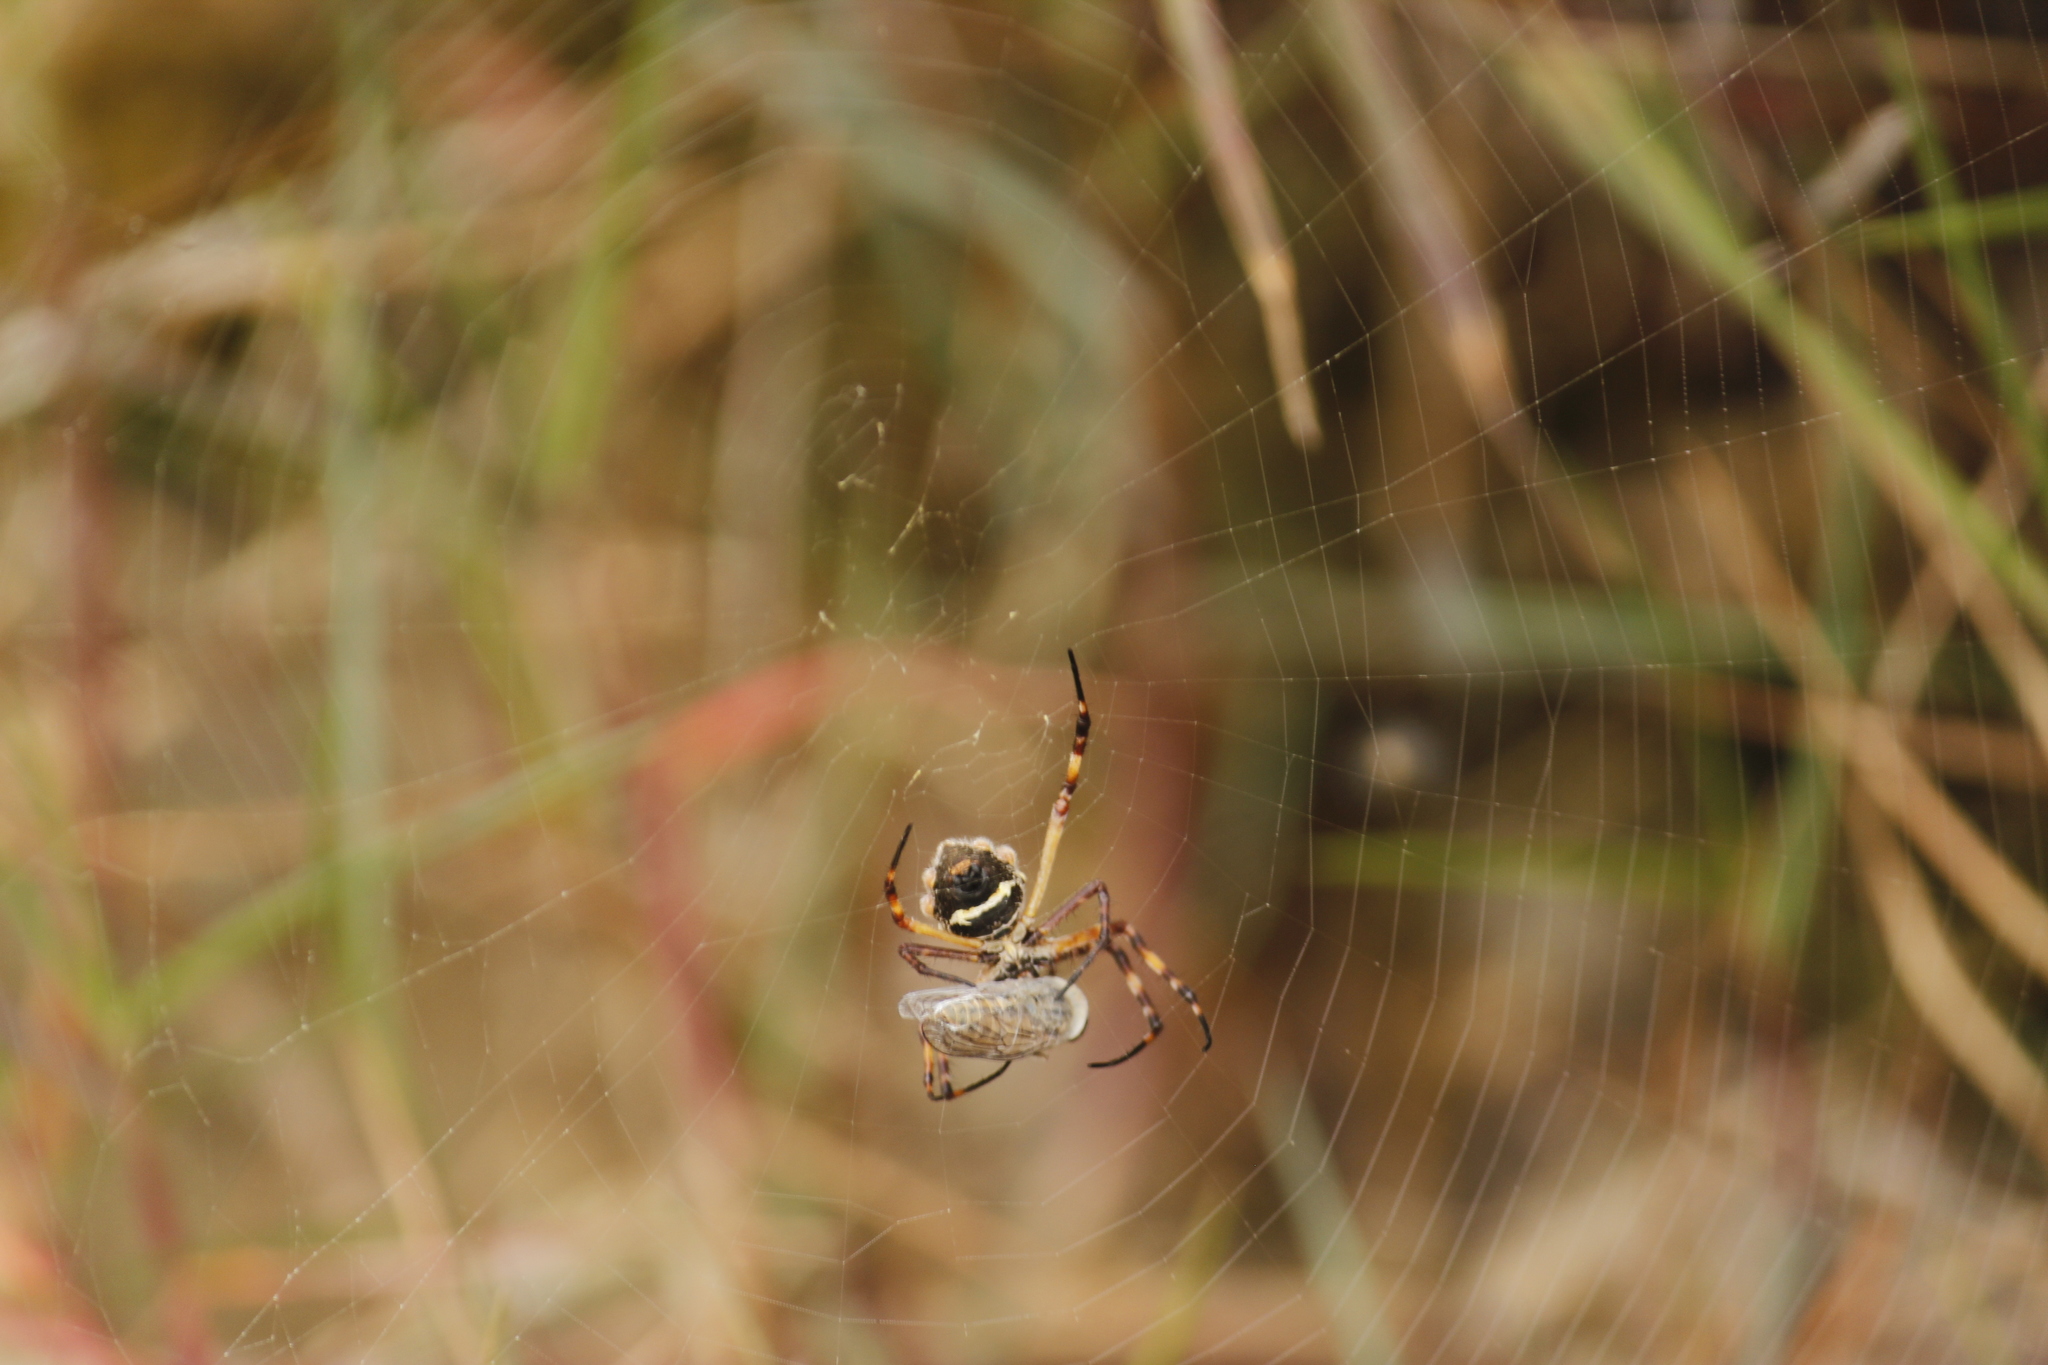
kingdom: Animalia
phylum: Arthropoda
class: Arachnida
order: Araneae
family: Araneidae
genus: Argiope
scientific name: Argiope argentata
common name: Orb weavers
